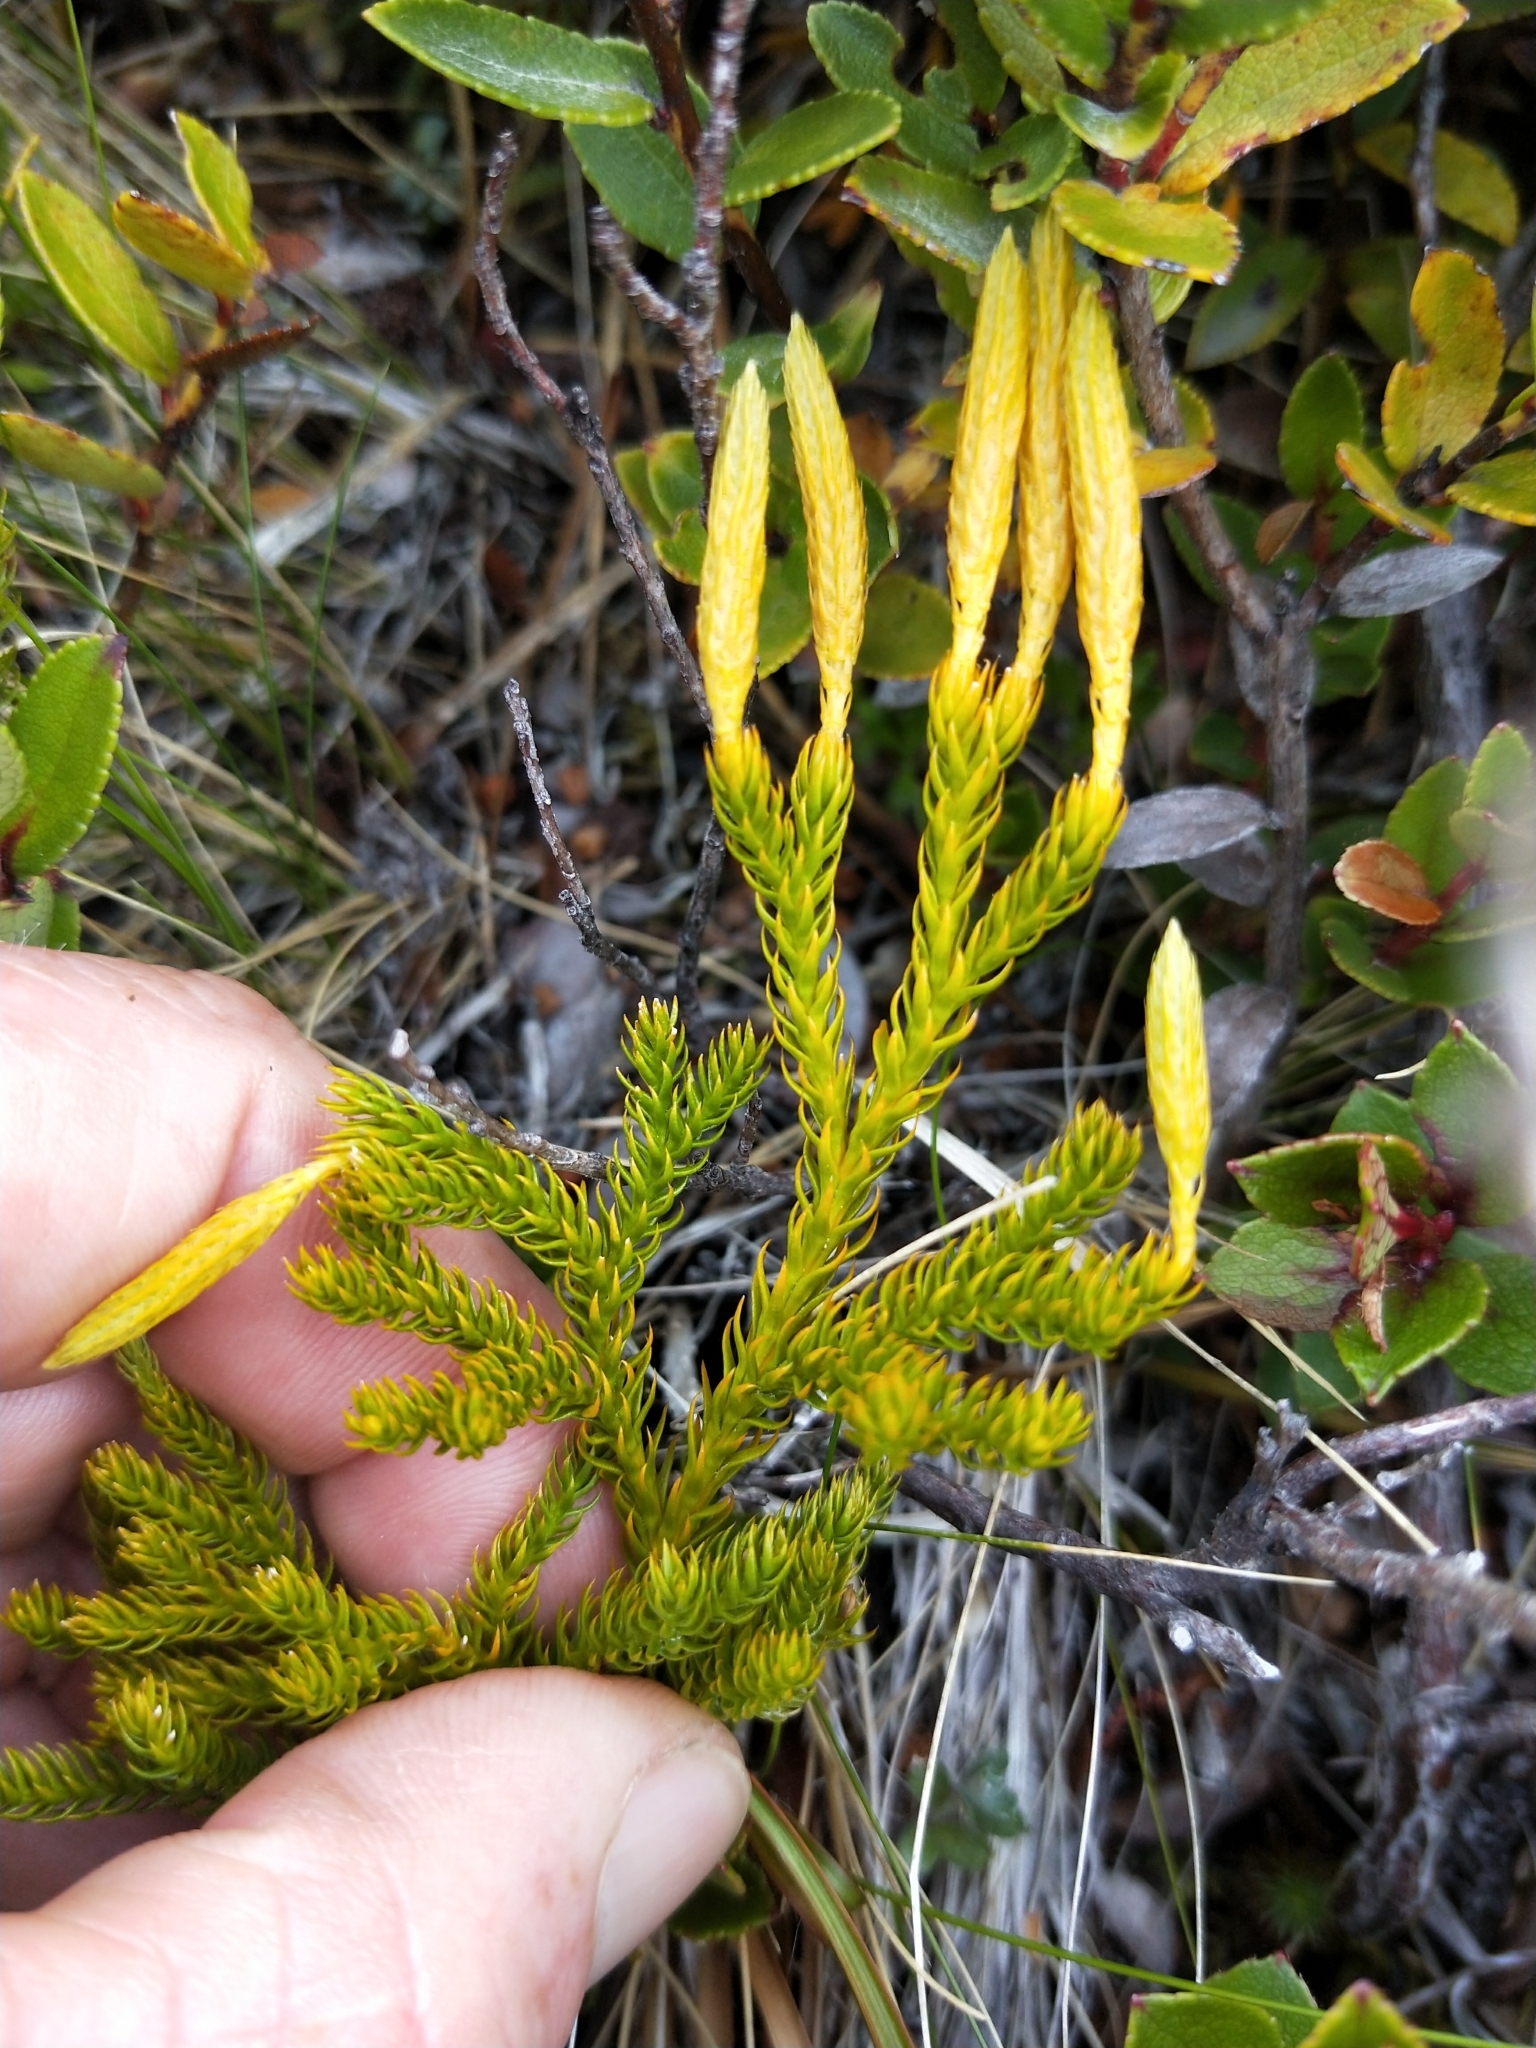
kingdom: Plantae
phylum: Tracheophyta
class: Lycopodiopsida
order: Lycopodiales
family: Lycopodiaceae
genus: Austrolycopodium
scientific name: Austrolycopodium fastigiatum
